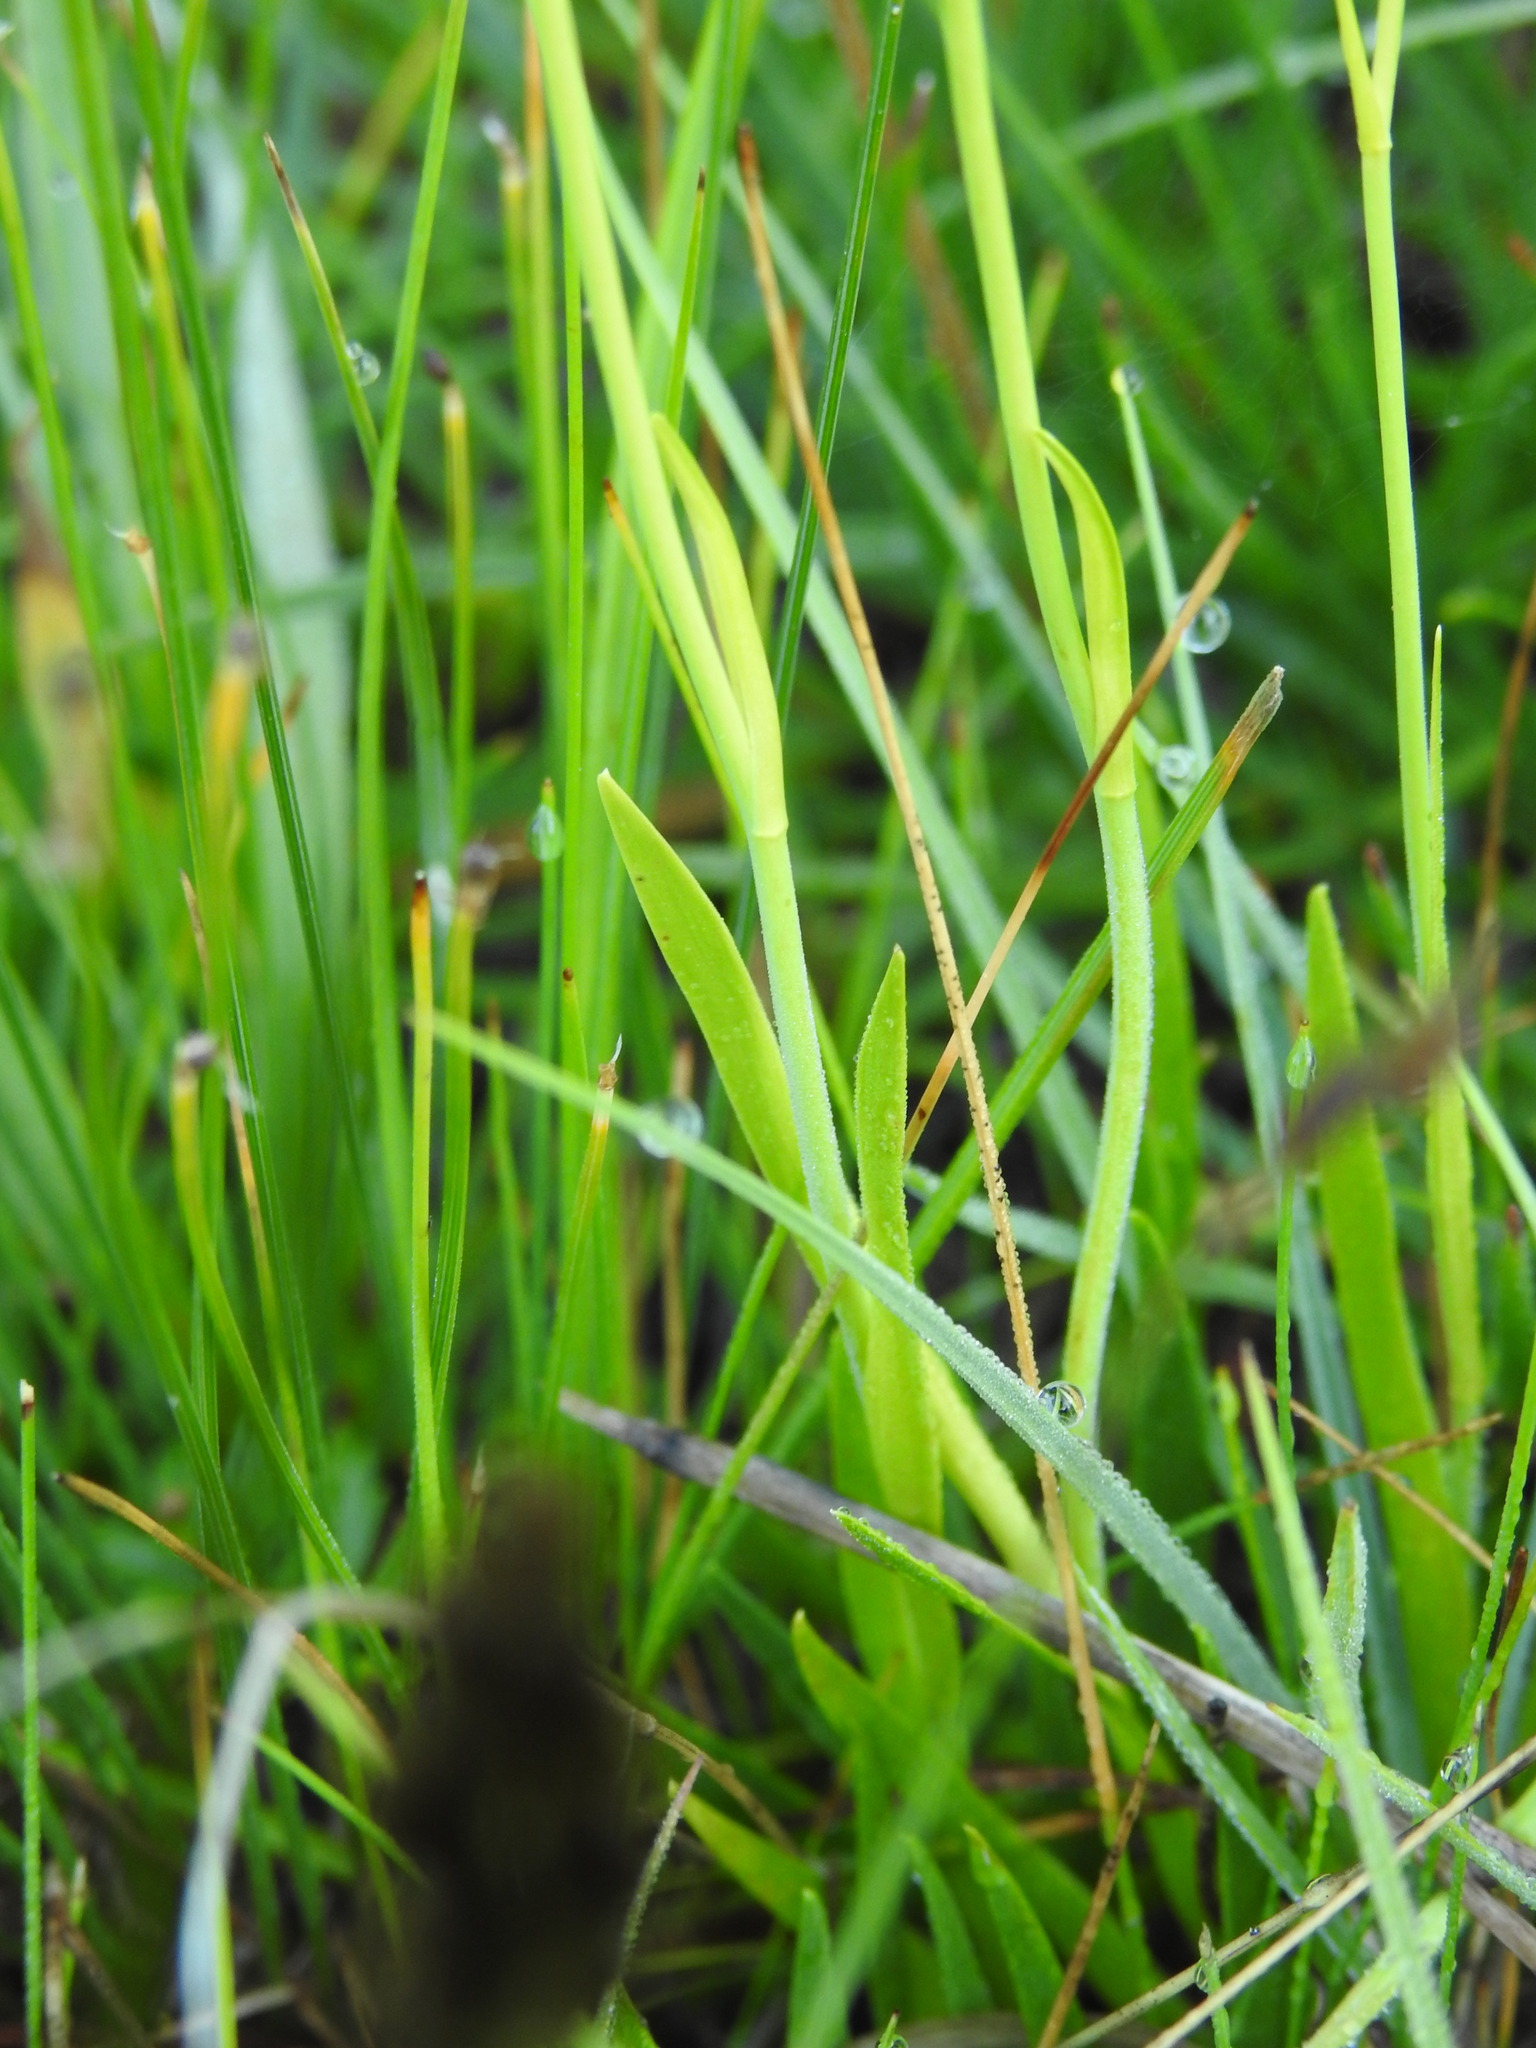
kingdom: Plantae
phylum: Tracheophyta
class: Liliopsida
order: Alismatales
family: Tofieldiaceae
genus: Tofieldia
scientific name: Tofieldia calyculata
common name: German-asphodel
